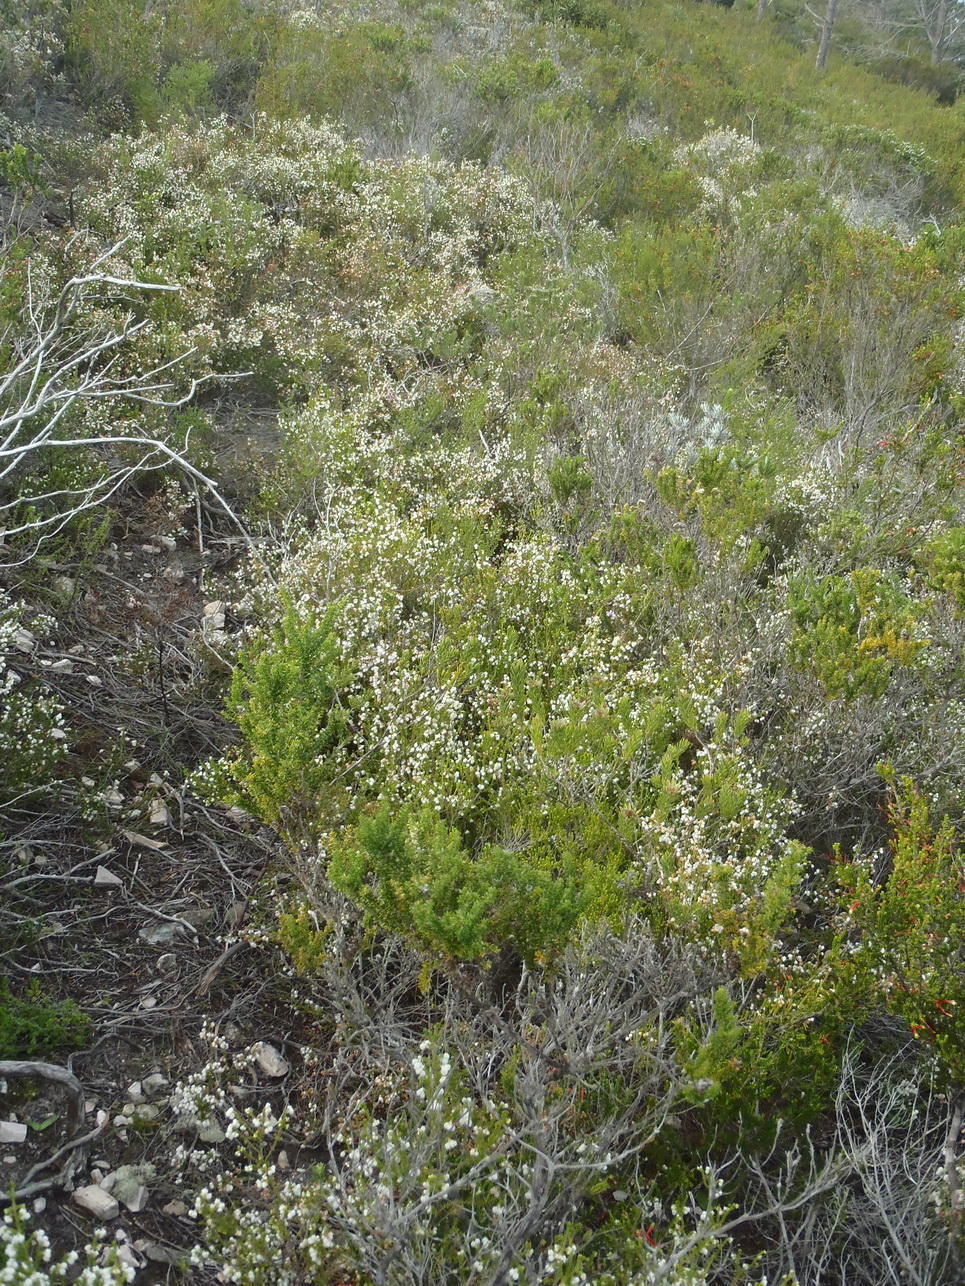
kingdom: Plantae
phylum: Tracheophyta
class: Magnoliopsida
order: Ericales
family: Ericaceae
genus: Erica
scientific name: Erica formosa
